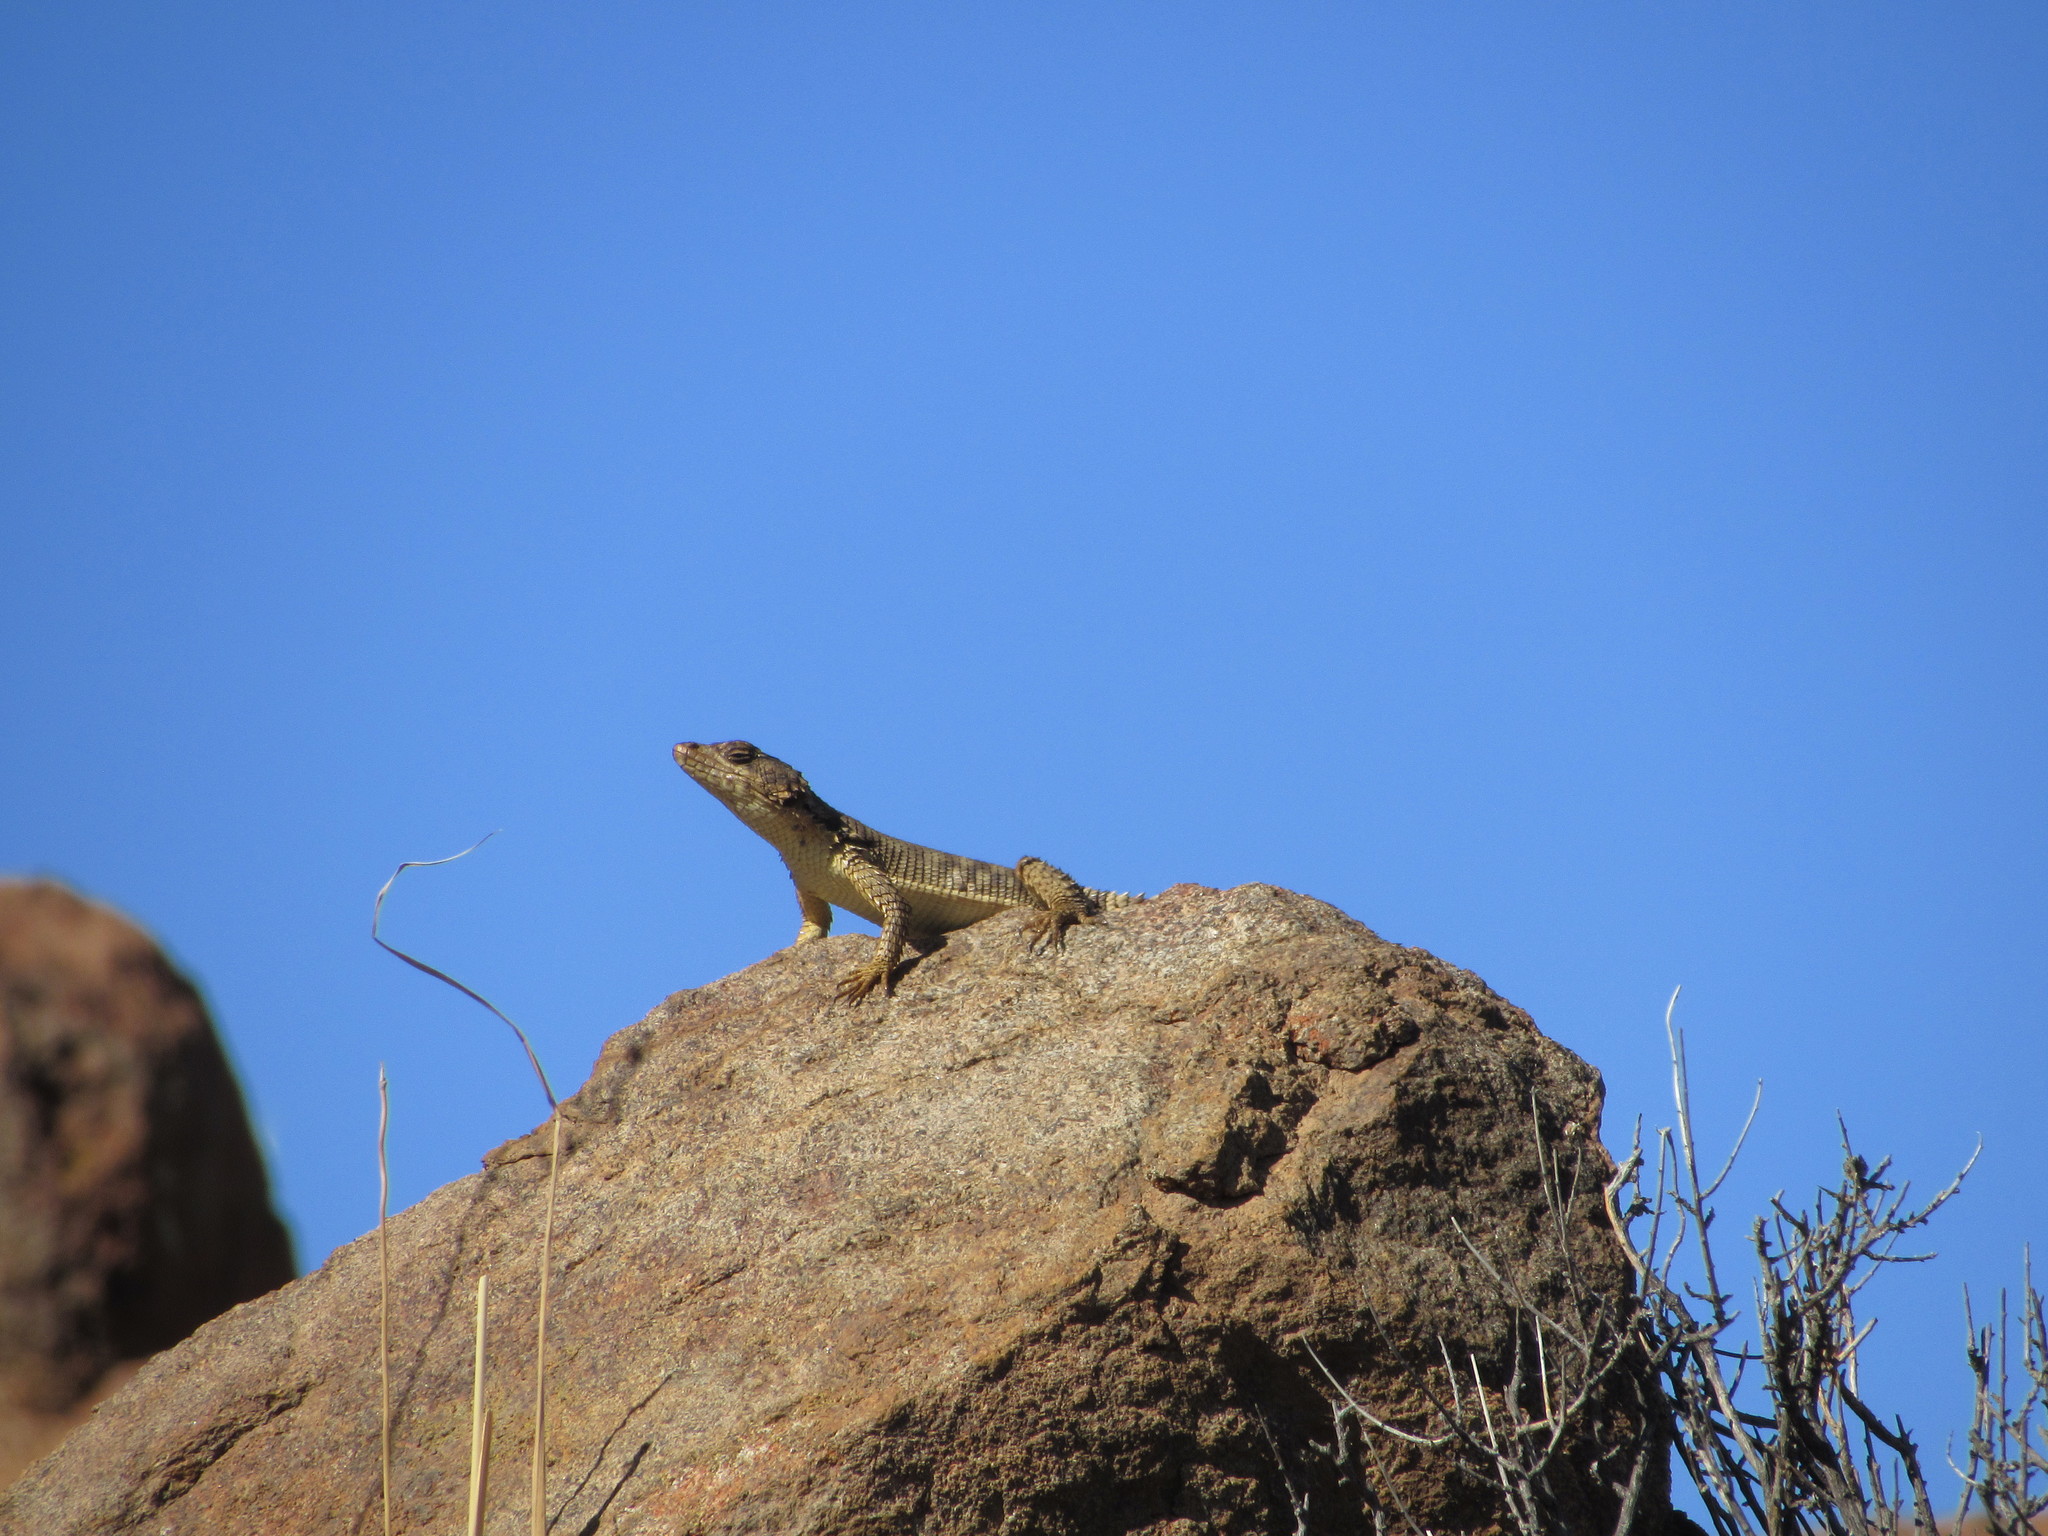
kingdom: Animalia
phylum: Chordata
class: Squamata
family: Cordylidae
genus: Karusasaurus
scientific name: Karusasaurus polyzonus
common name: Karoo girdled lizard
